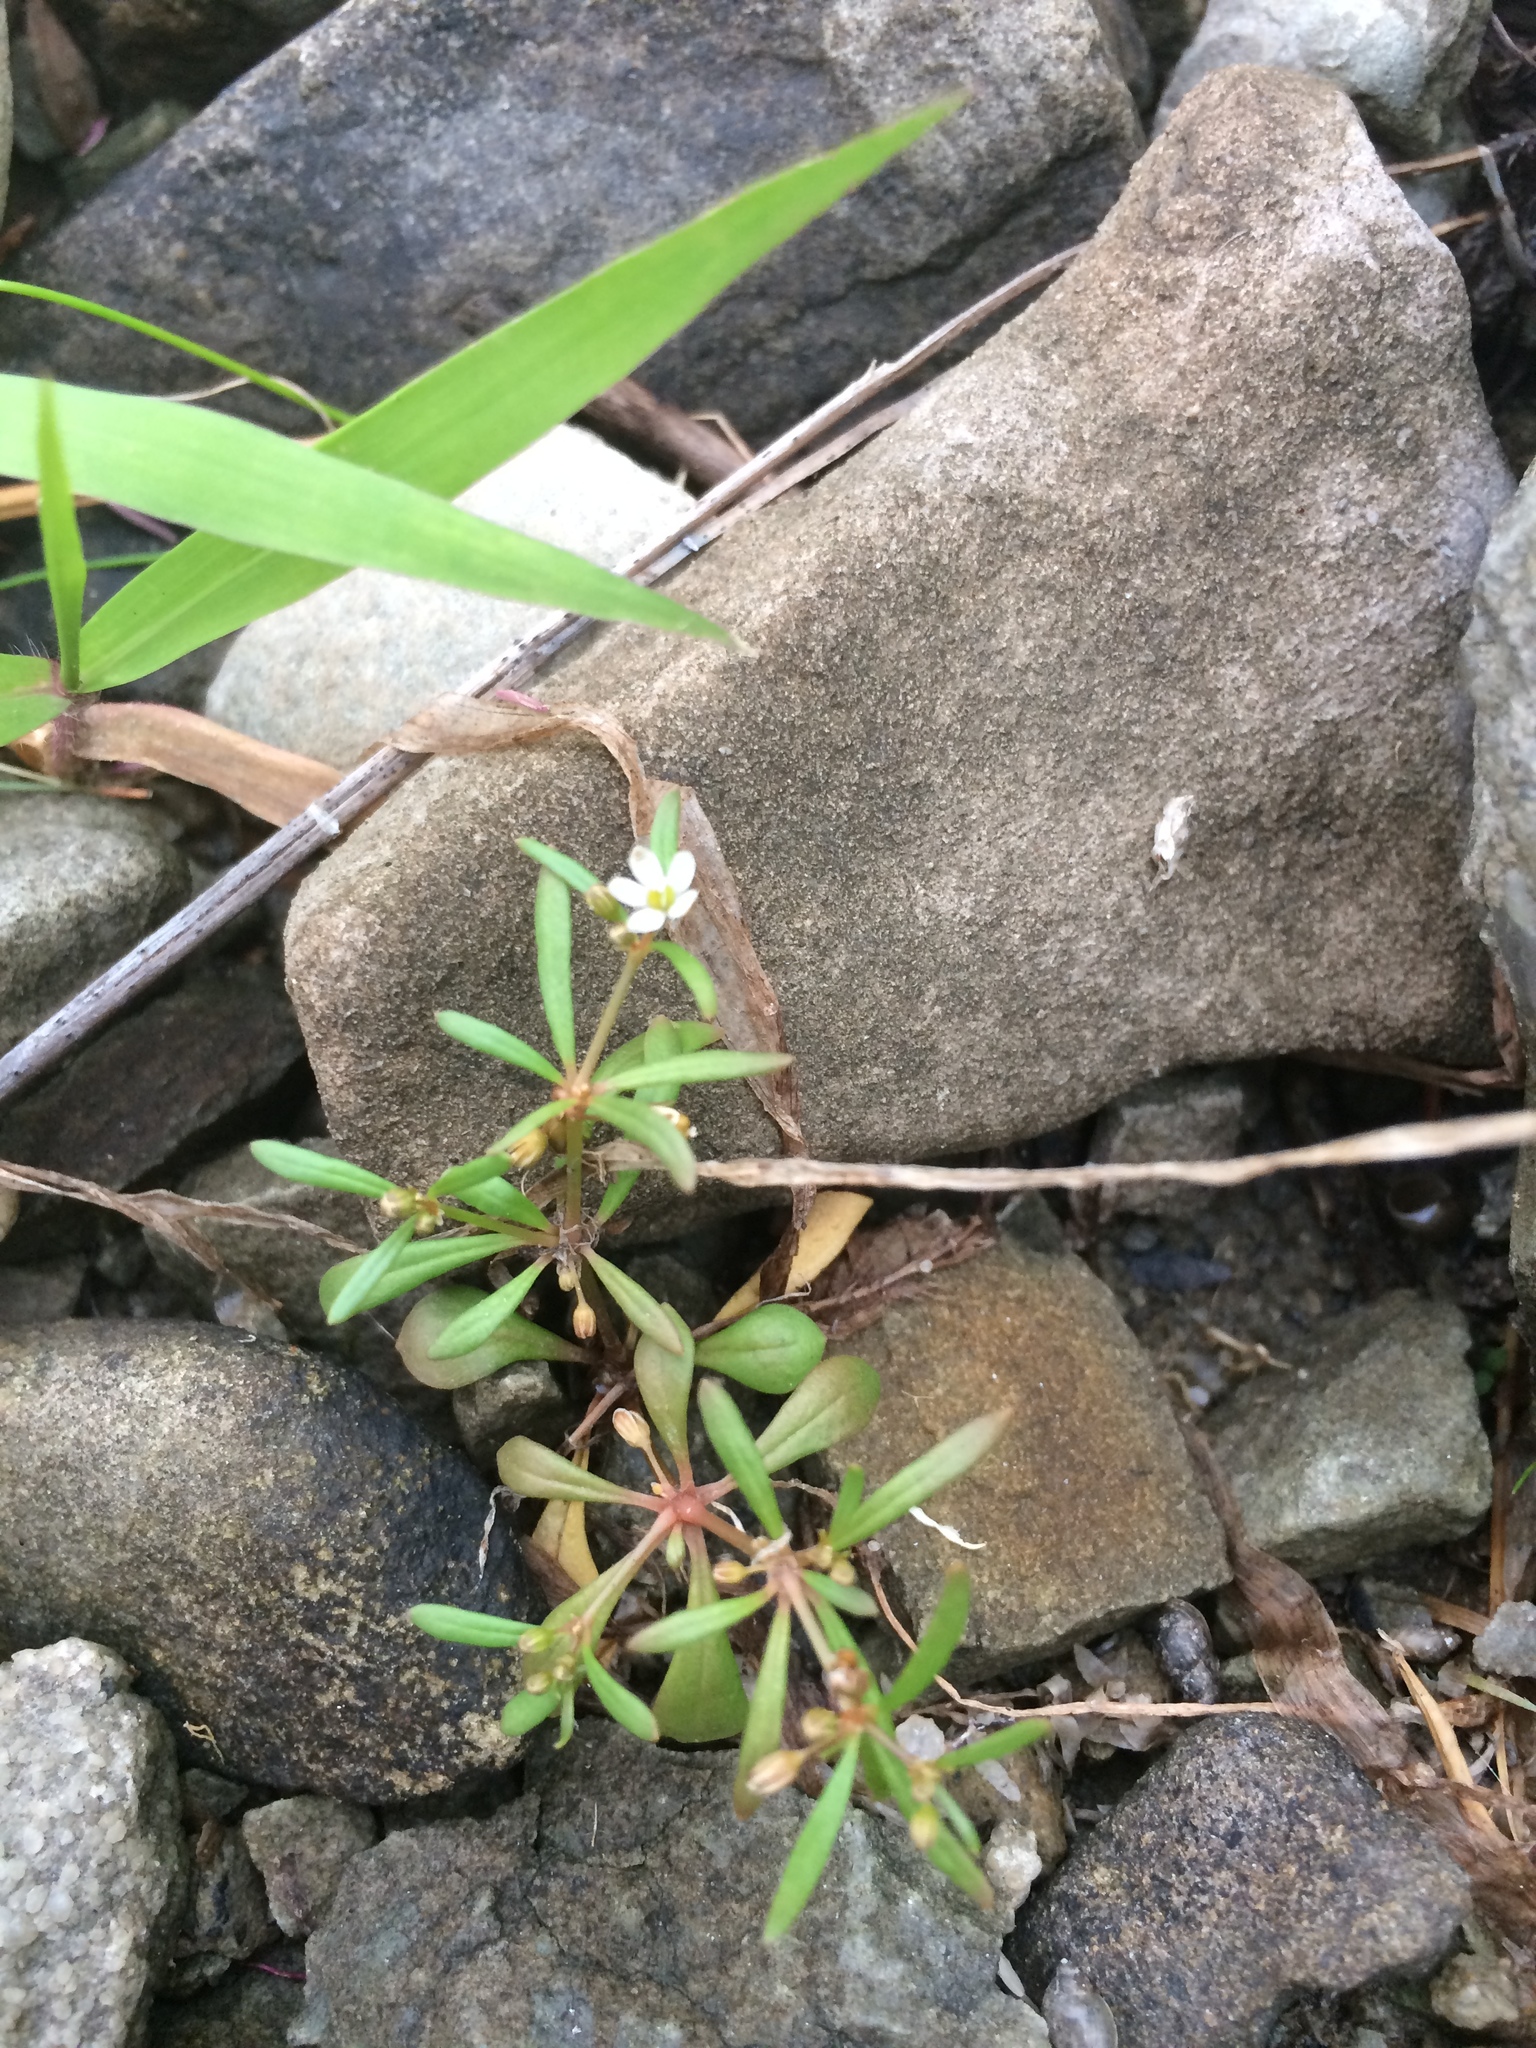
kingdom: Plantae
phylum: Tracheophyta
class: Magnoliopsida
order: Caryophyllales
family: Molluginaceae
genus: Mollugo
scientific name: Mollugo verticillata
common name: Green carpetweed
